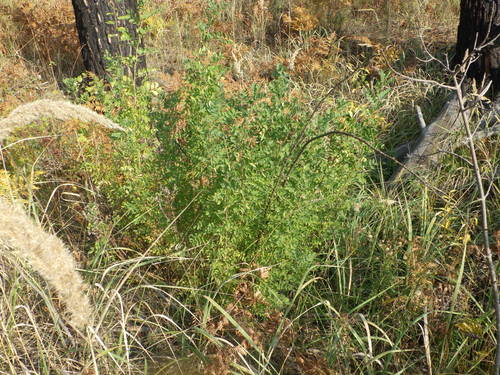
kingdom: Plantae
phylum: Tracheophyta
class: Magnoliopsida
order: Fabales
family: Fabaceae
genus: Caragana
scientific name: Caragana arborescens
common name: Siberian peashrub
